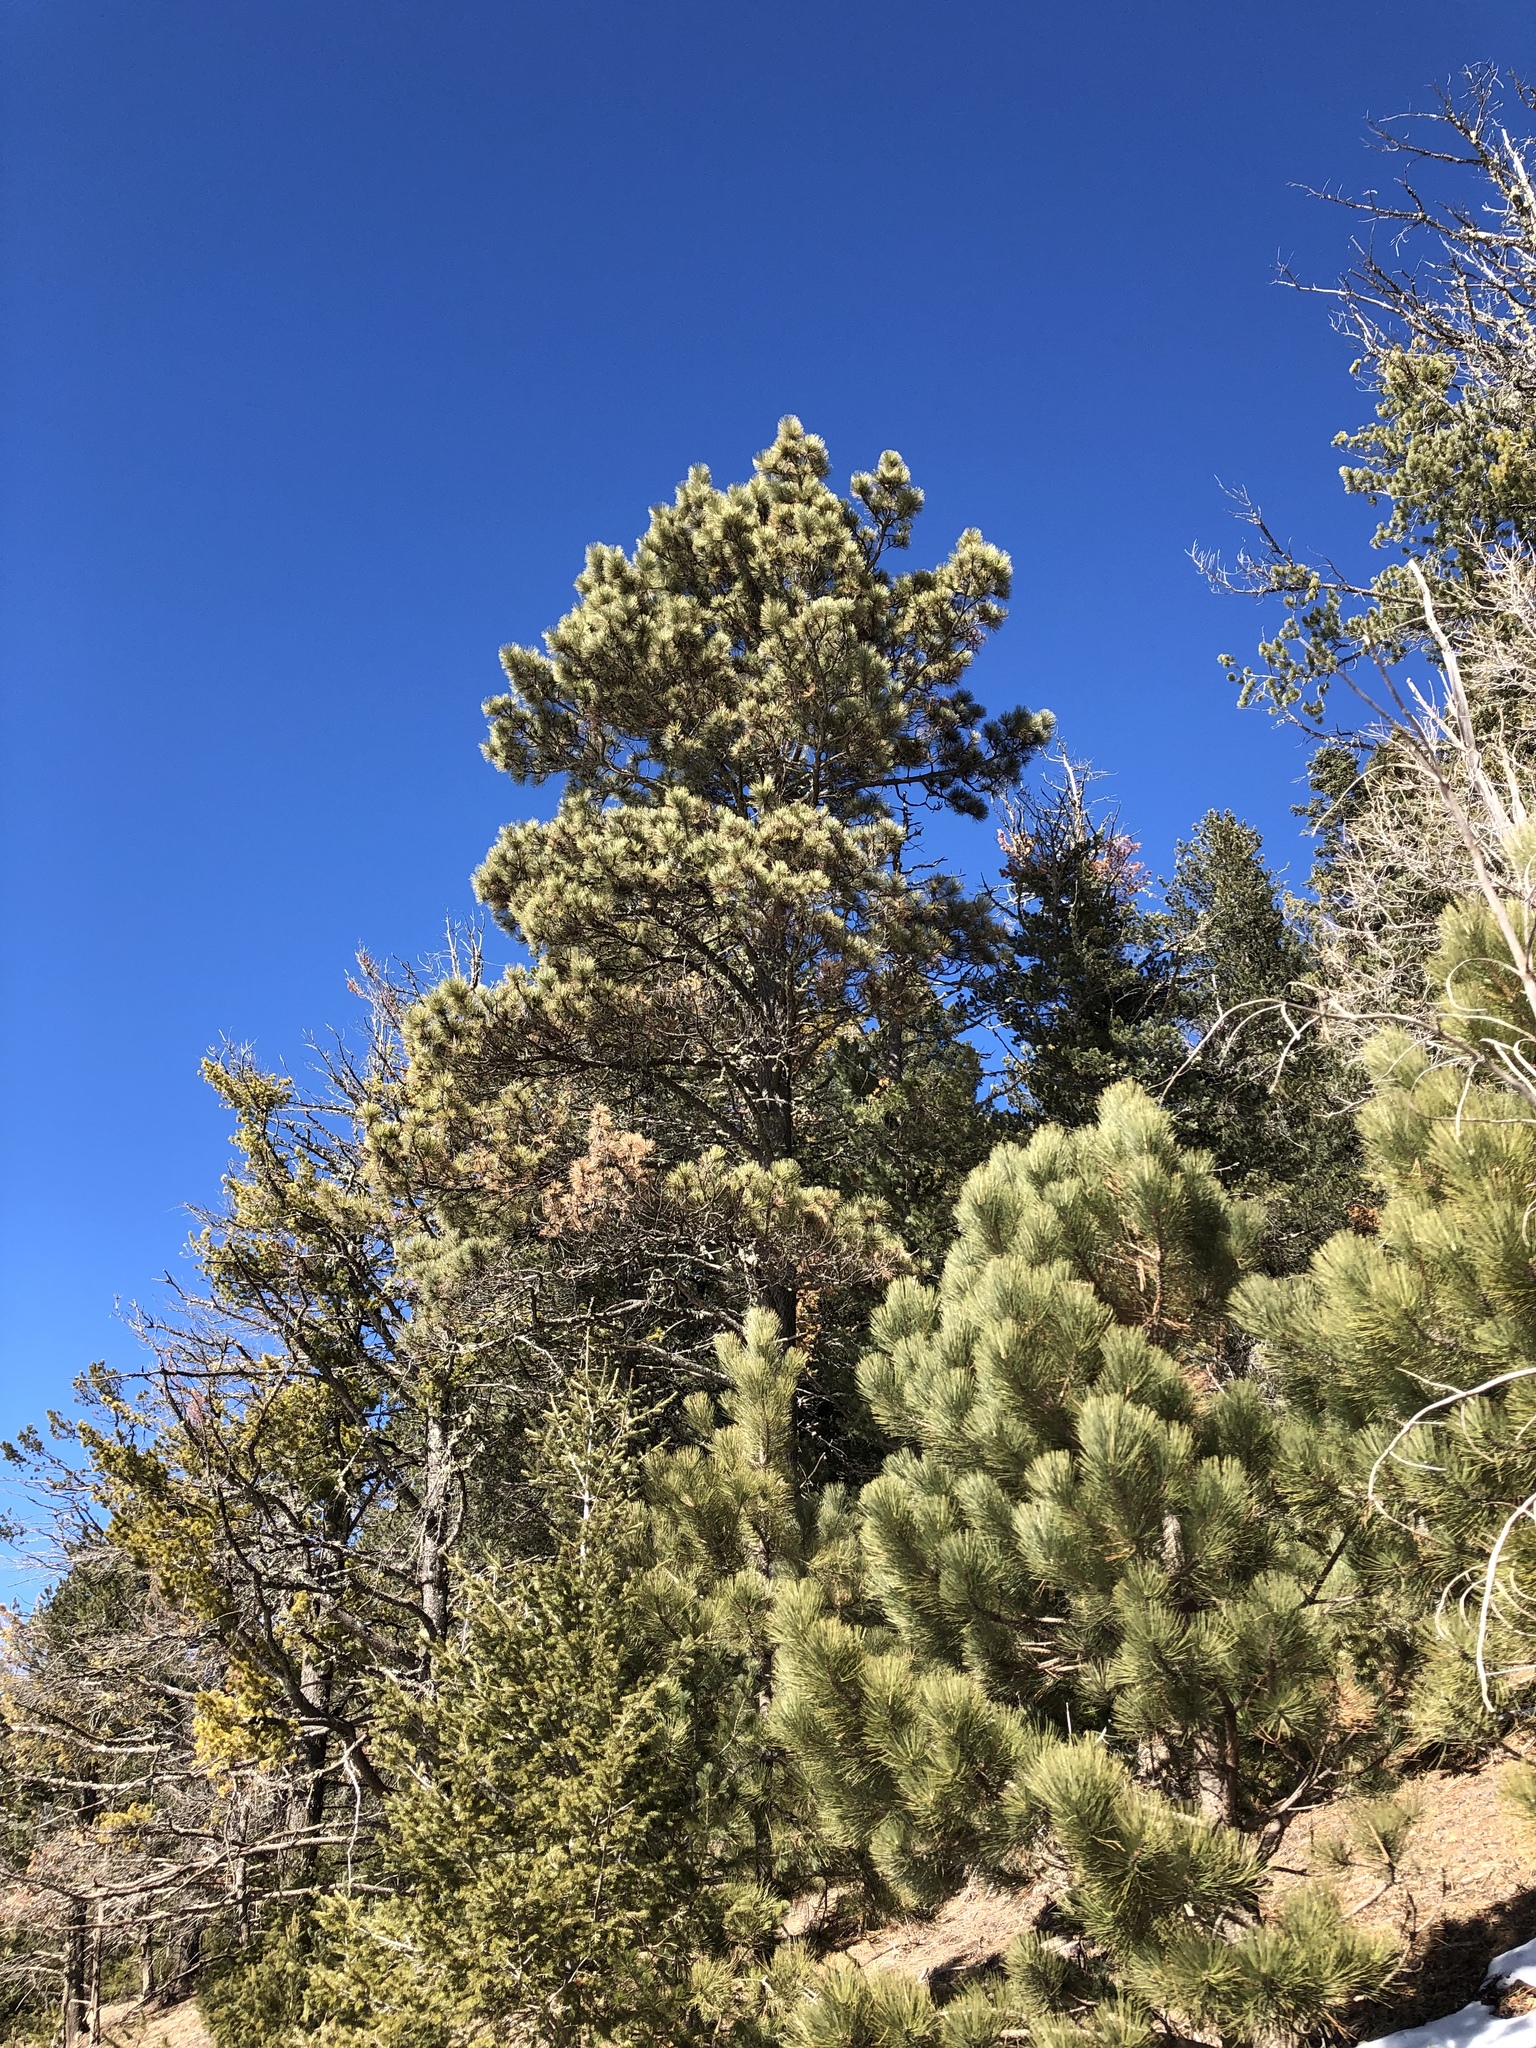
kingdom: Plantae
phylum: Tracheophyta
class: Pinopsida
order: Pinales
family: Pinaceae
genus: Pinus
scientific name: Pinus ponderosa
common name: Western yellow-pine
